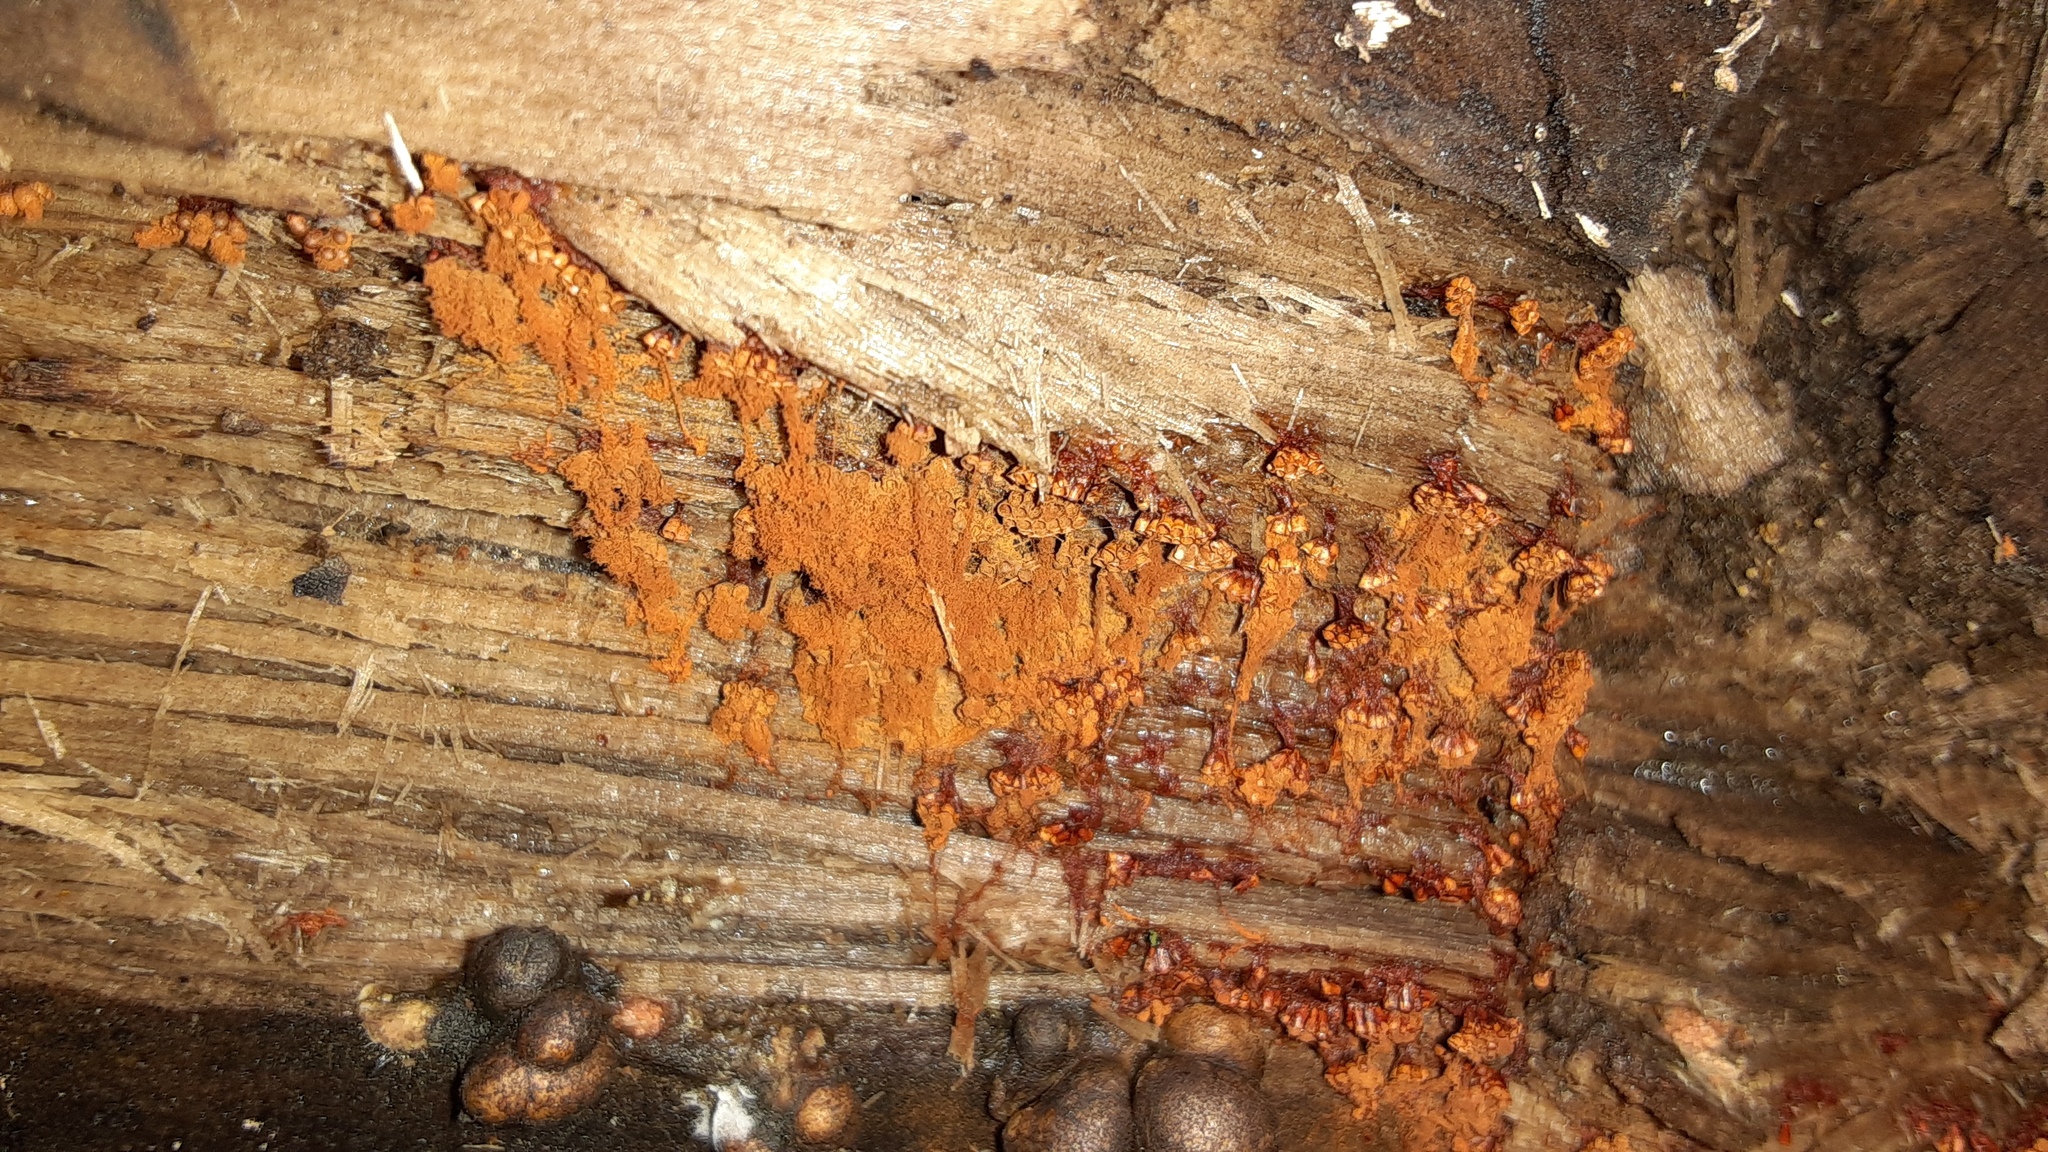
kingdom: Protozoa
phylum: Mycetozoa
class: Myxomycetes
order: Trichiales
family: Trichiaceae
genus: Metatrichia
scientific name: Metatrichia vesparia
